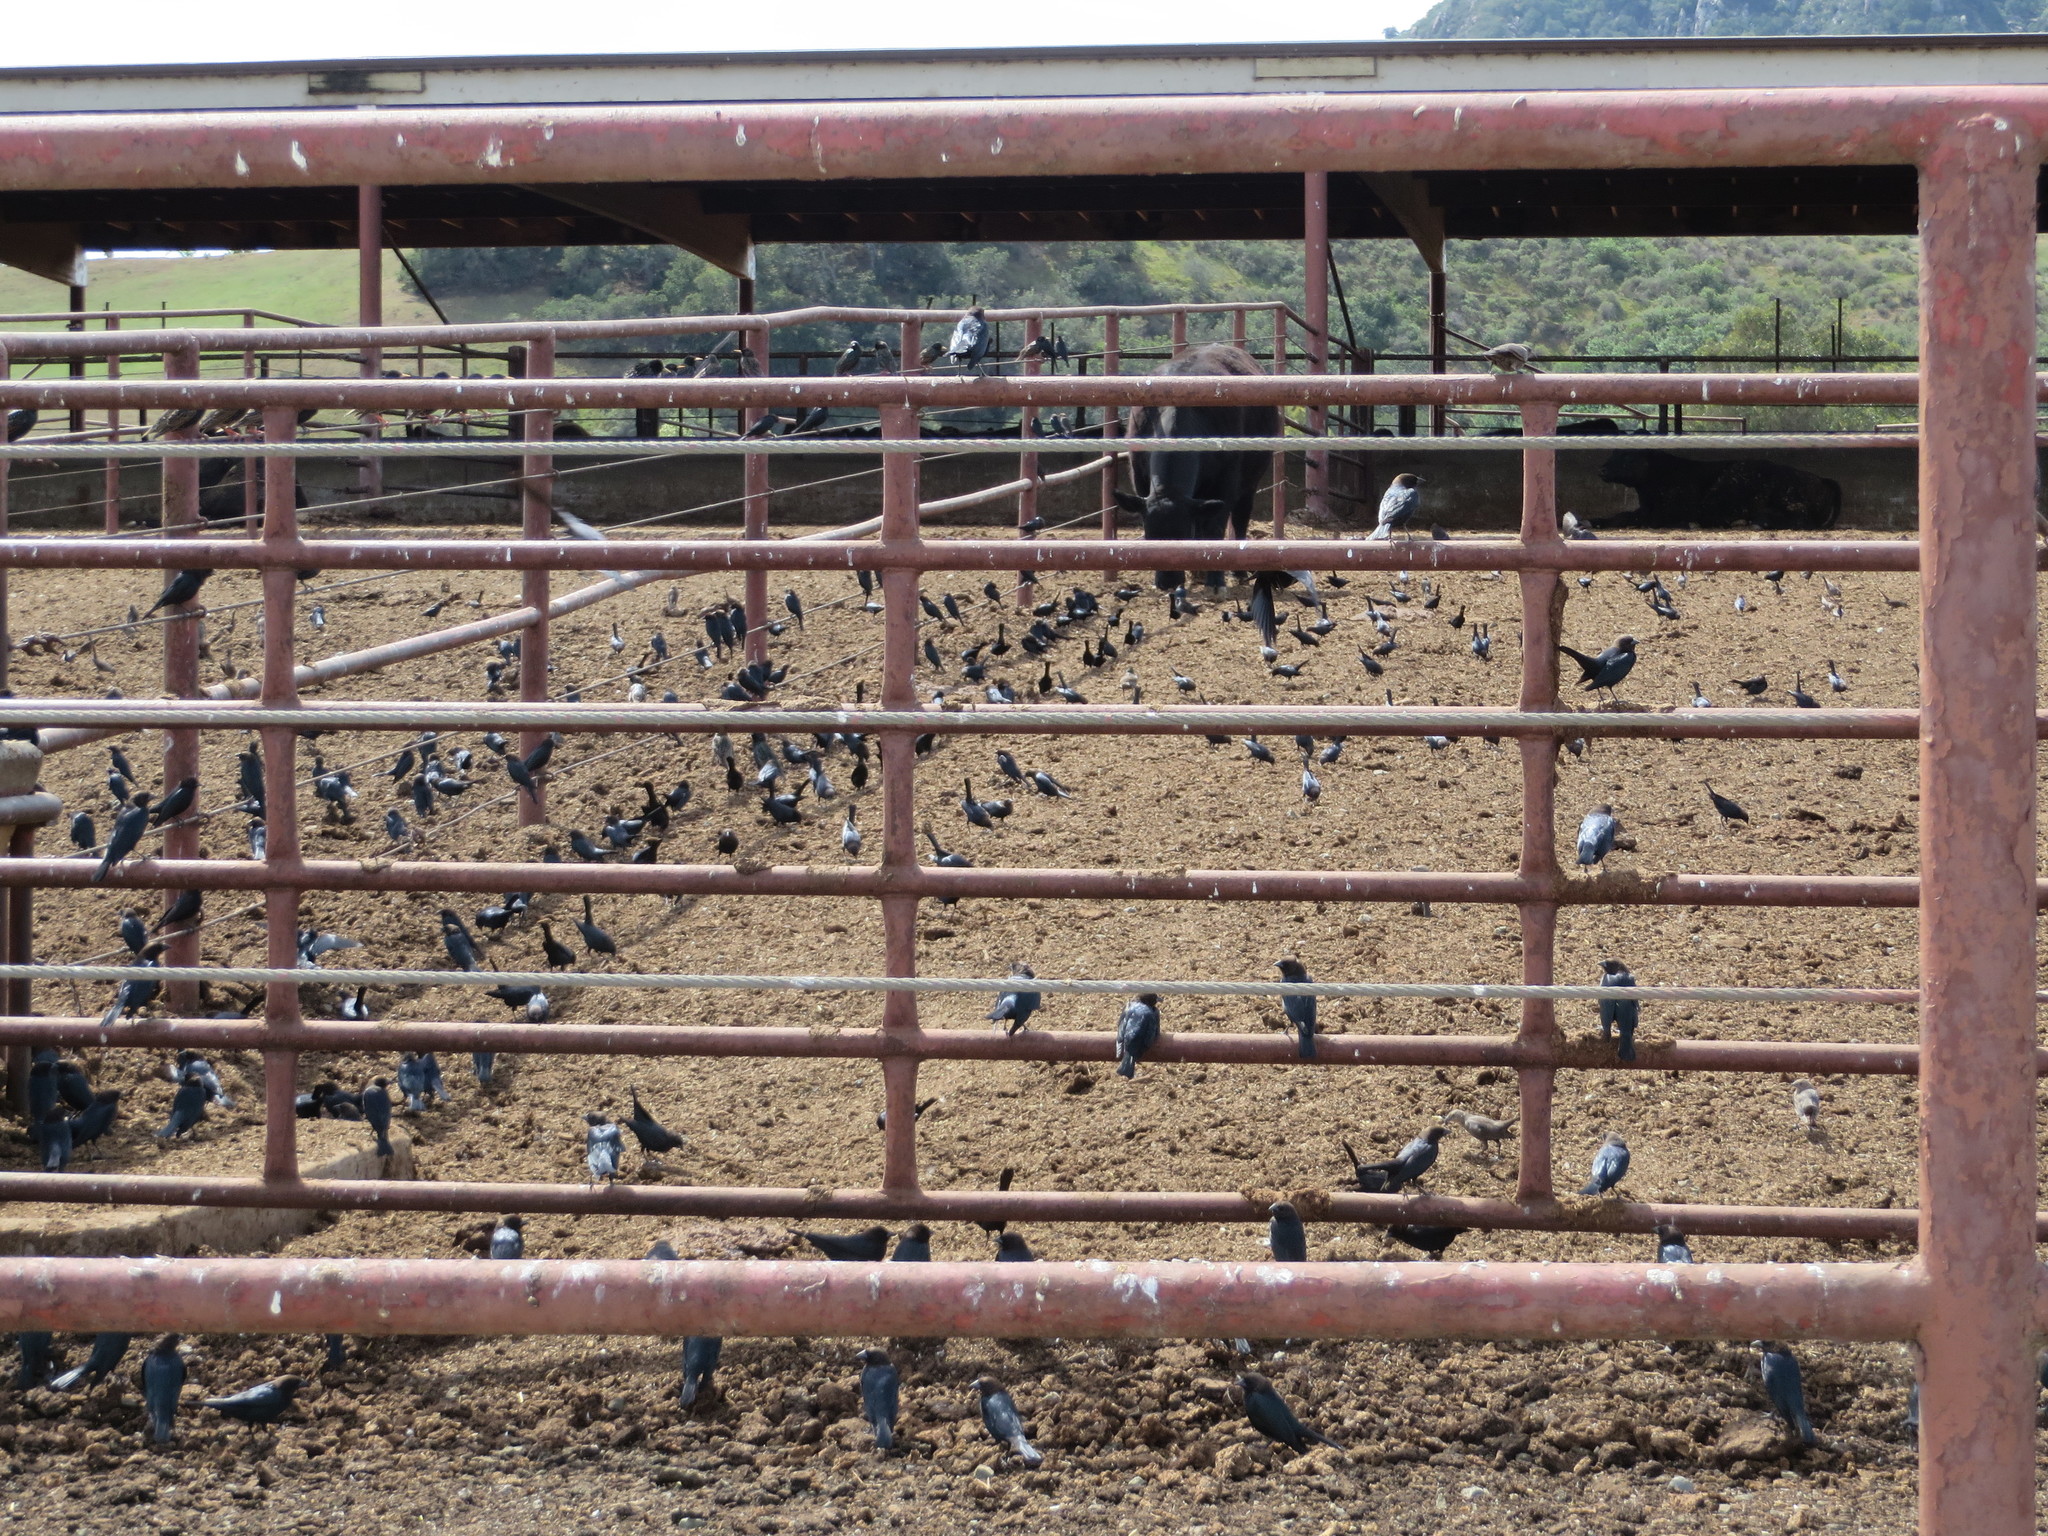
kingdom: Animalia
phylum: Chordata
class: Aves
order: Passeriformes
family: Icteridae
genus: Molothrus
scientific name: Molothrus ater
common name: Brown-headed cowbird
